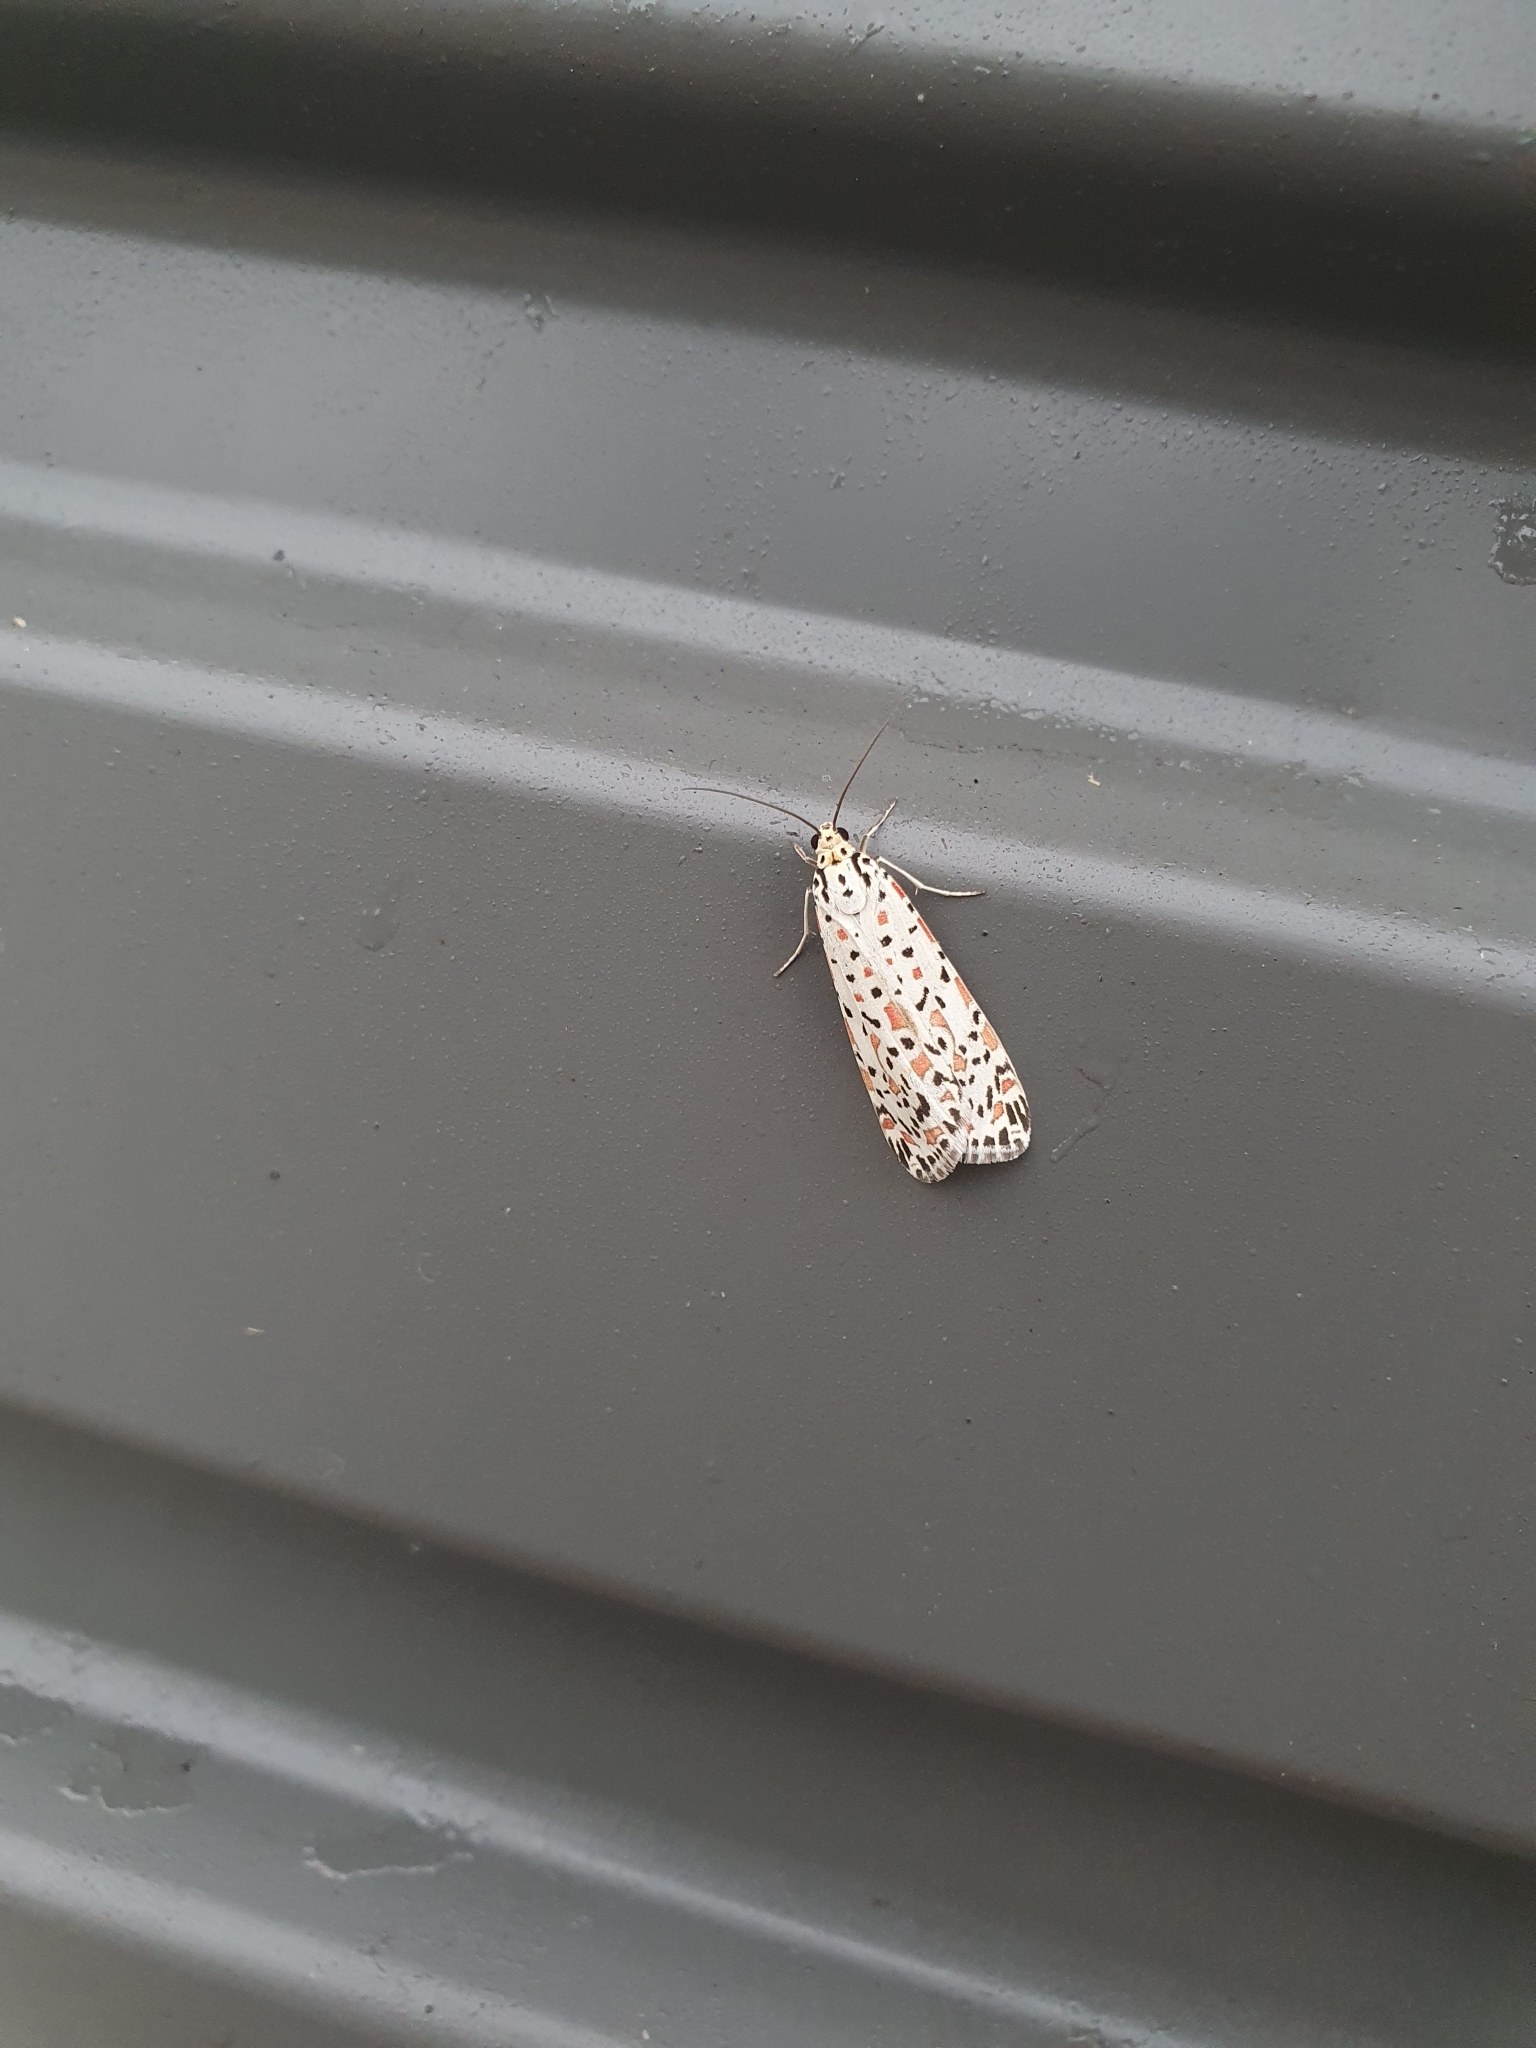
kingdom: Animalia
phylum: Arthropoda
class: Insecta
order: Lepidoptera
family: Erebidae
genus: Utetheisa
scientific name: Utetheisa pulchelloides
